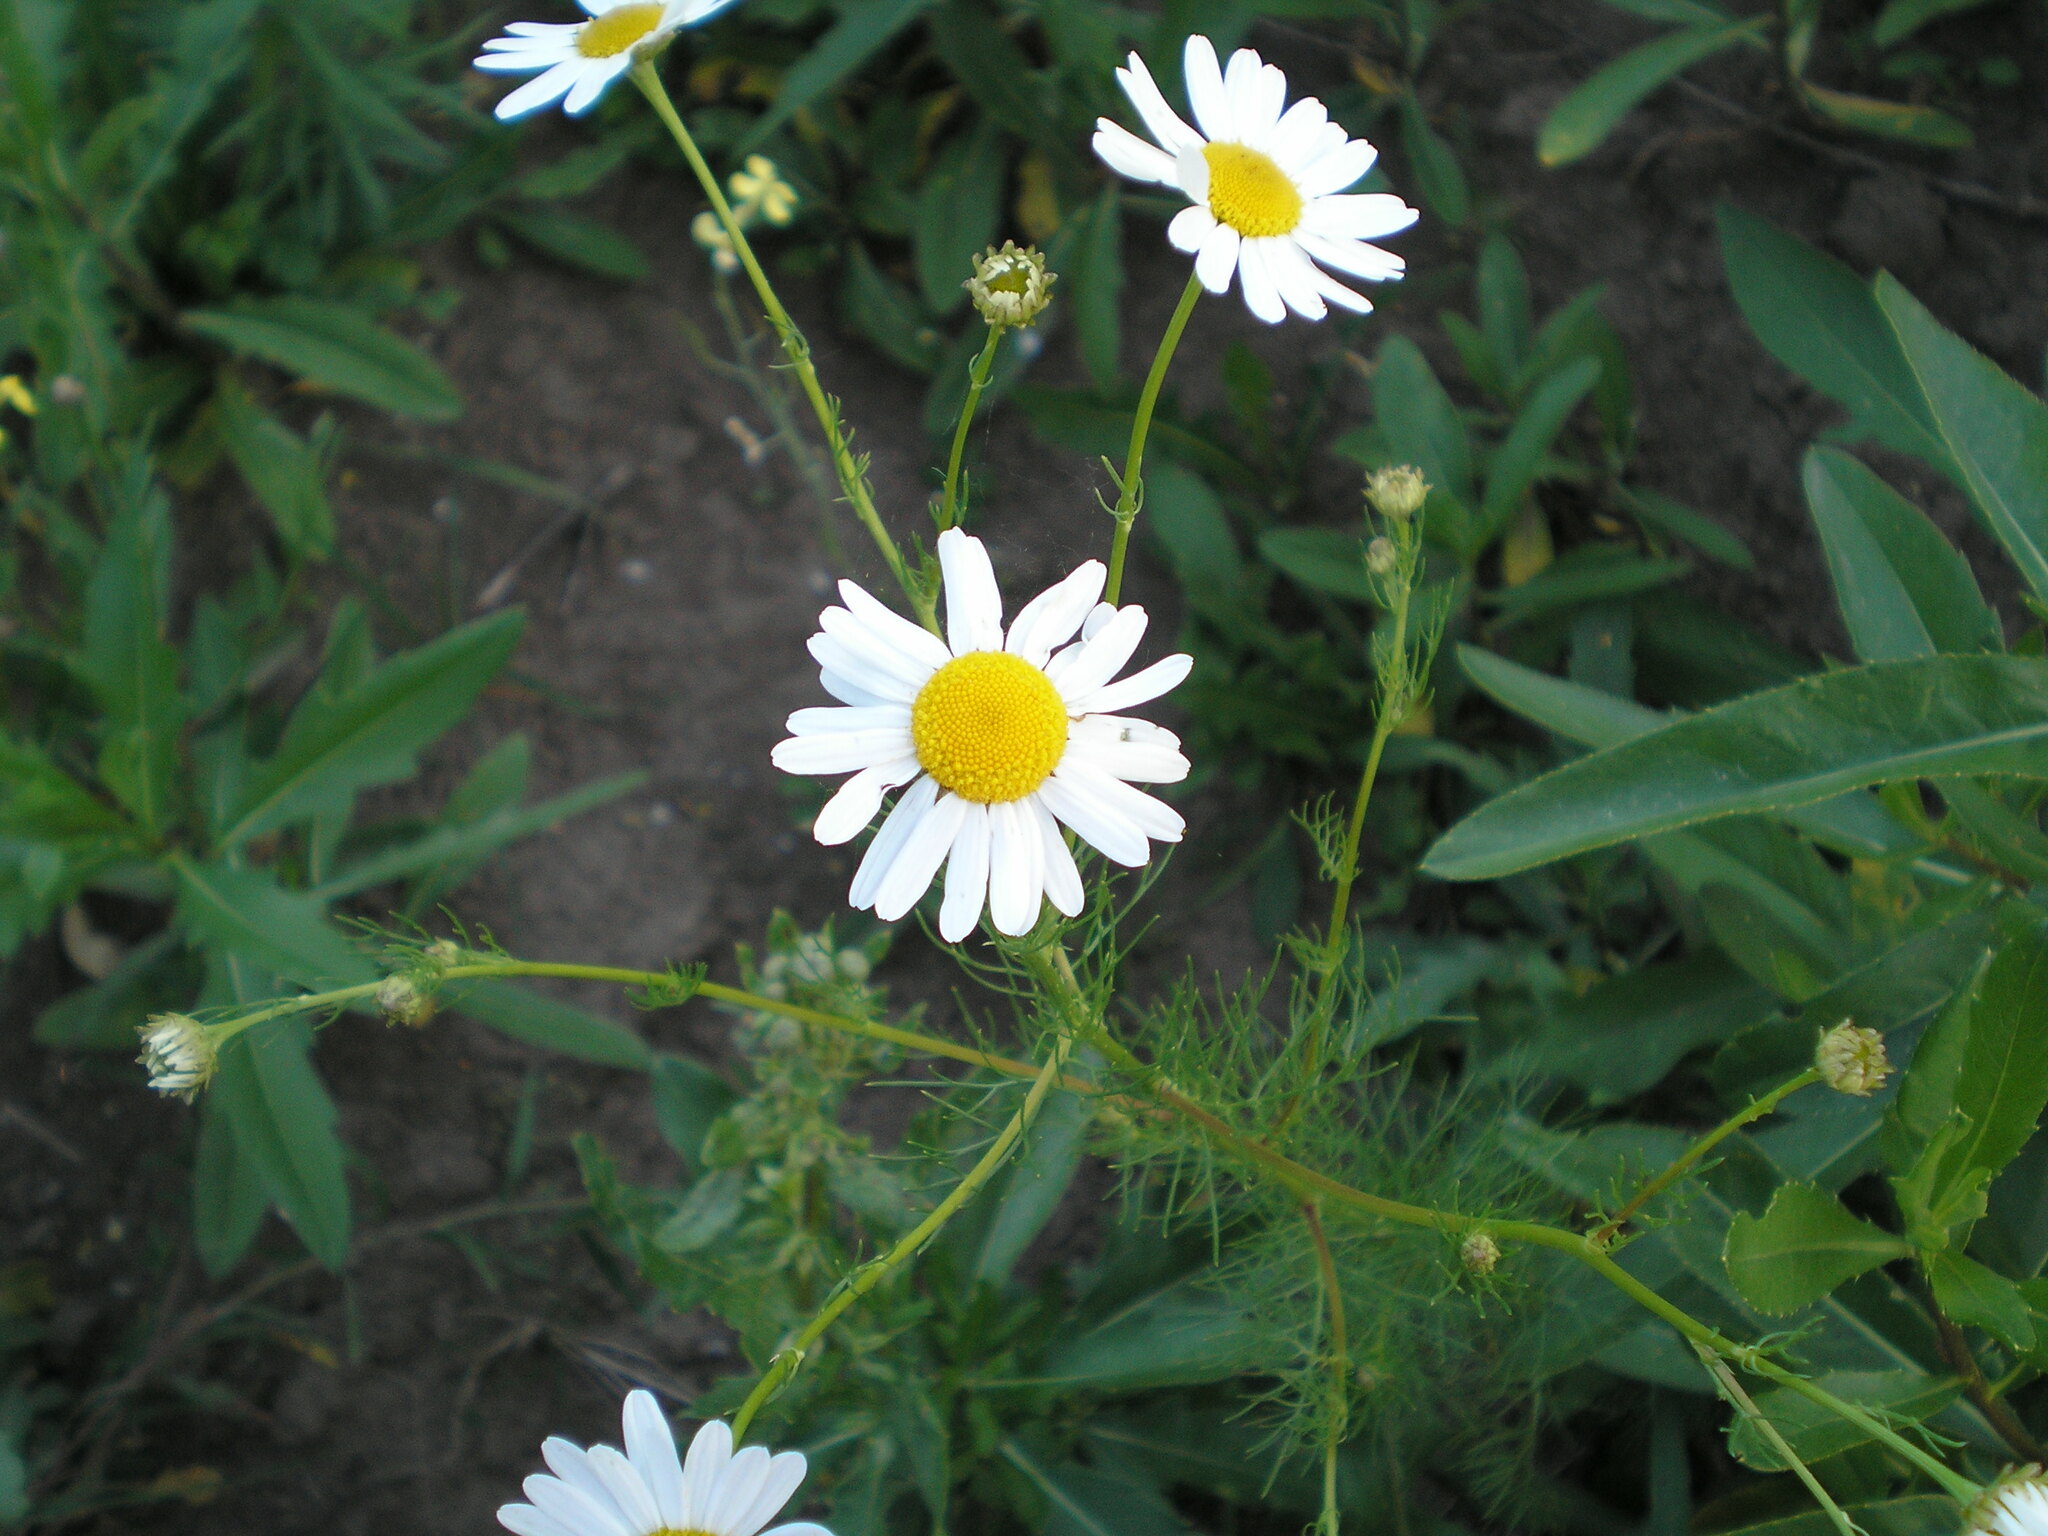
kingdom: Plantae
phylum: Tracheophyta
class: Magnoliopsida
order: Asterales
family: Asteraceae
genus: Tripleurospermum
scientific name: Tripleurospermum inodorum
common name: Scentless mayweed
